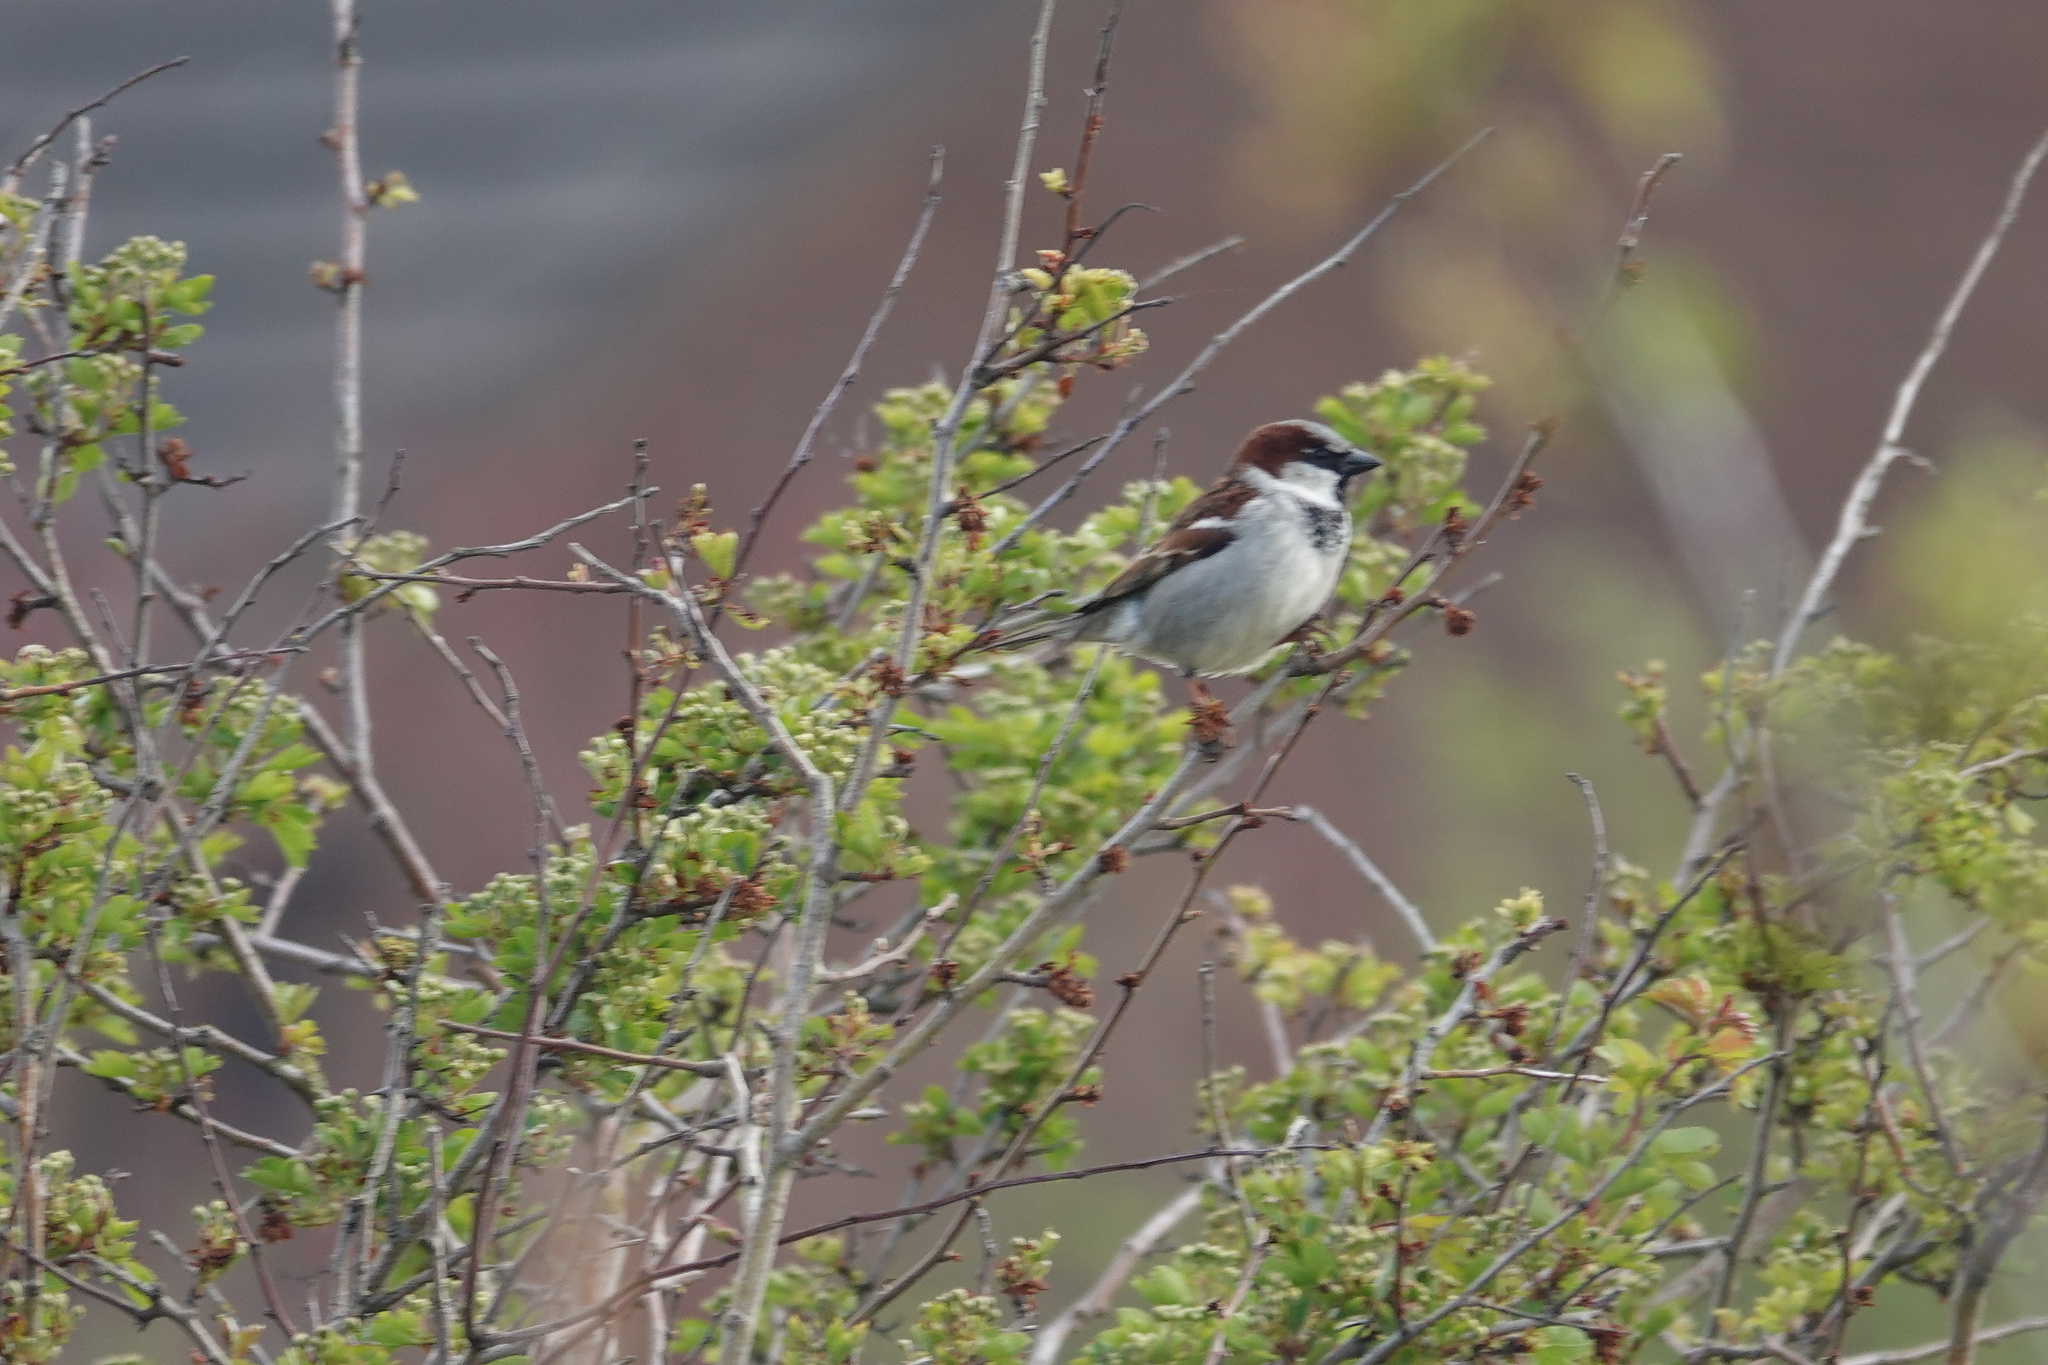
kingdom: Animalia
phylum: Chordata
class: Aves
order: Passeriformes
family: Passeridae
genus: Passer
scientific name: Passer domesticus
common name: House sparrow
